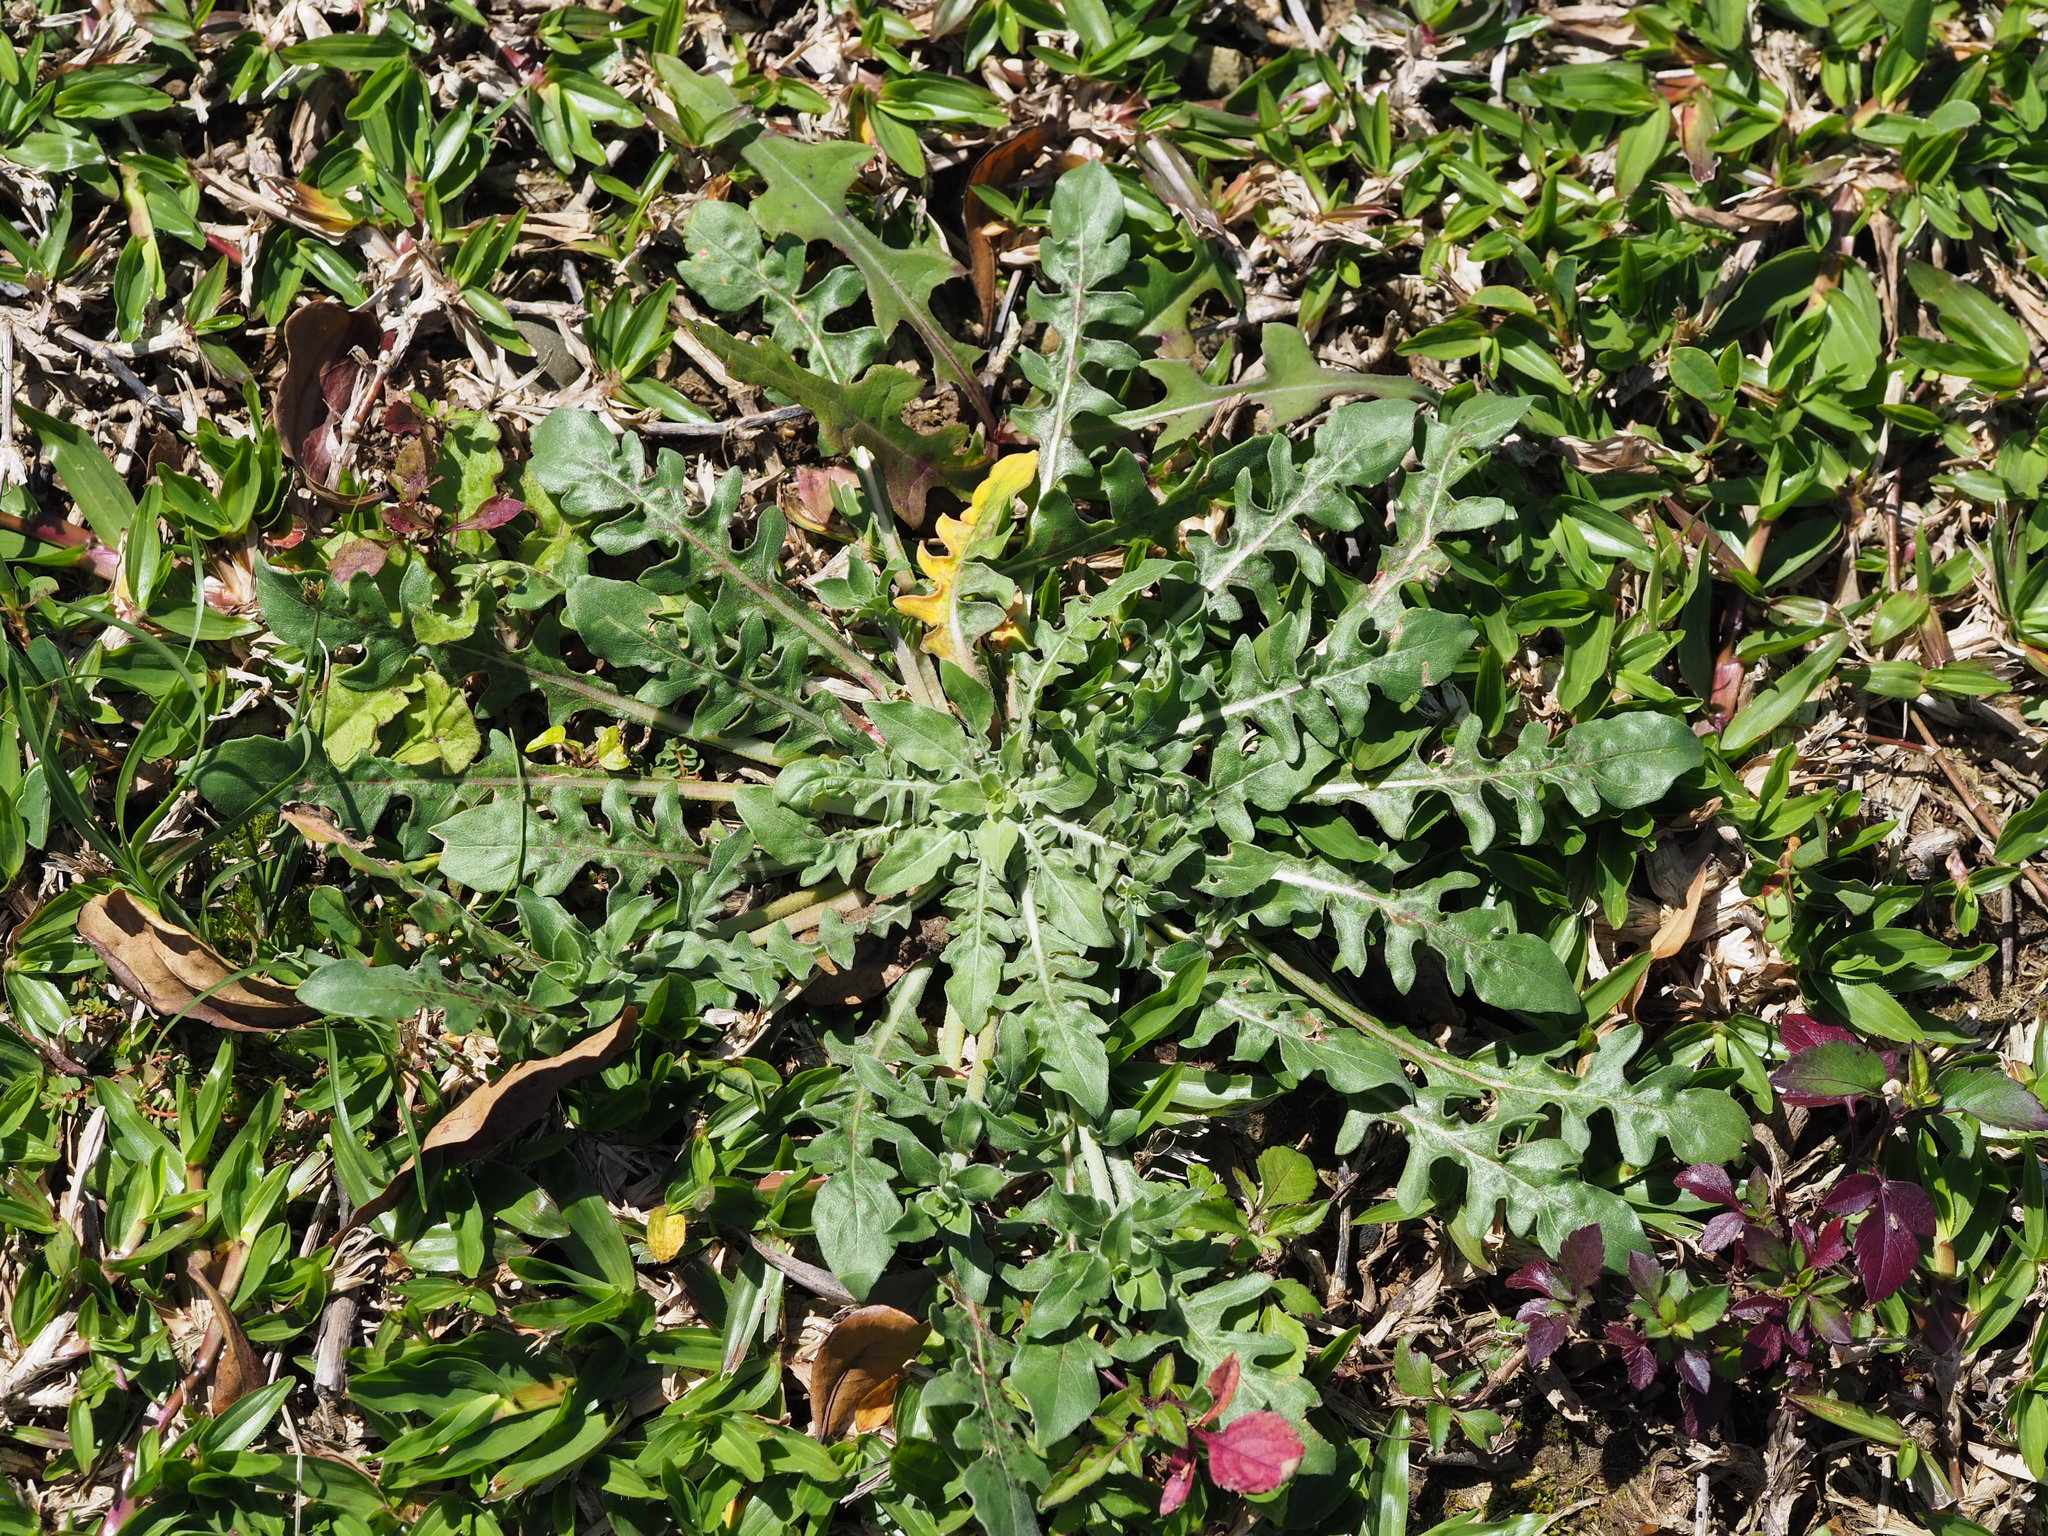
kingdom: Plantae
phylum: Tracheophyta
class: Magnoliopsida
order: Asterales
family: Asteraceae
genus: Taraxacum
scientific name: Taraxacum officinale
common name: Common dandelion
